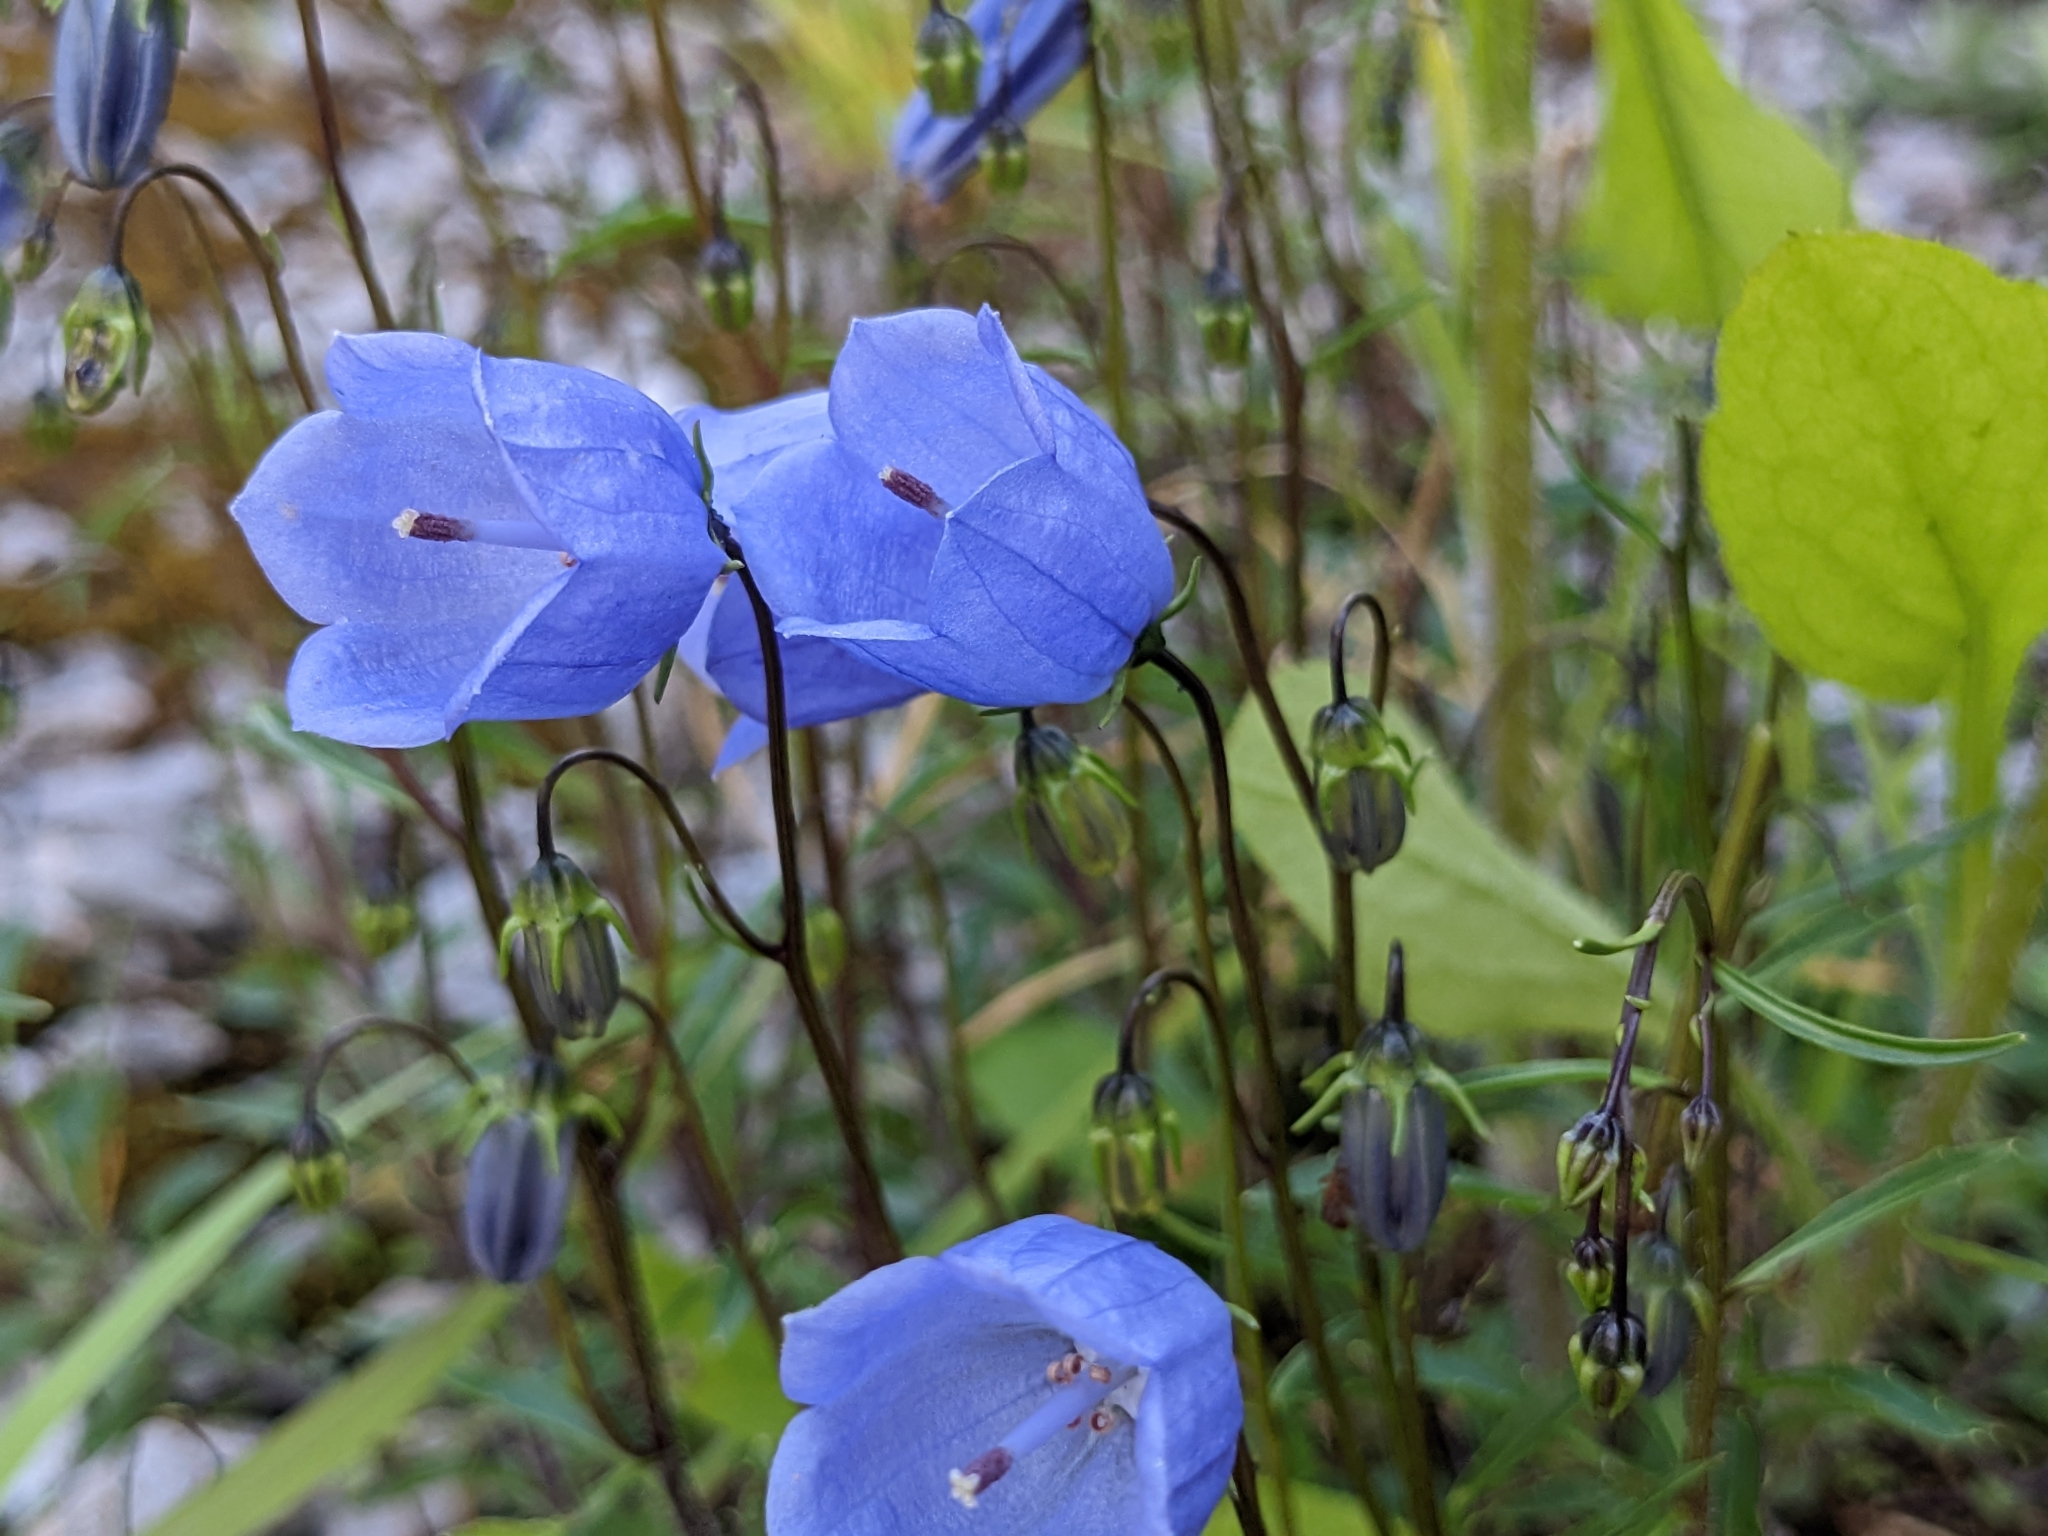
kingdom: Plantae
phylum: Tracheophyta
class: Magnoliopsida
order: Asterales
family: Campanulaceae
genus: Campanula
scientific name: Campanula cochleariifolia
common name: Fairies'-thimbles
